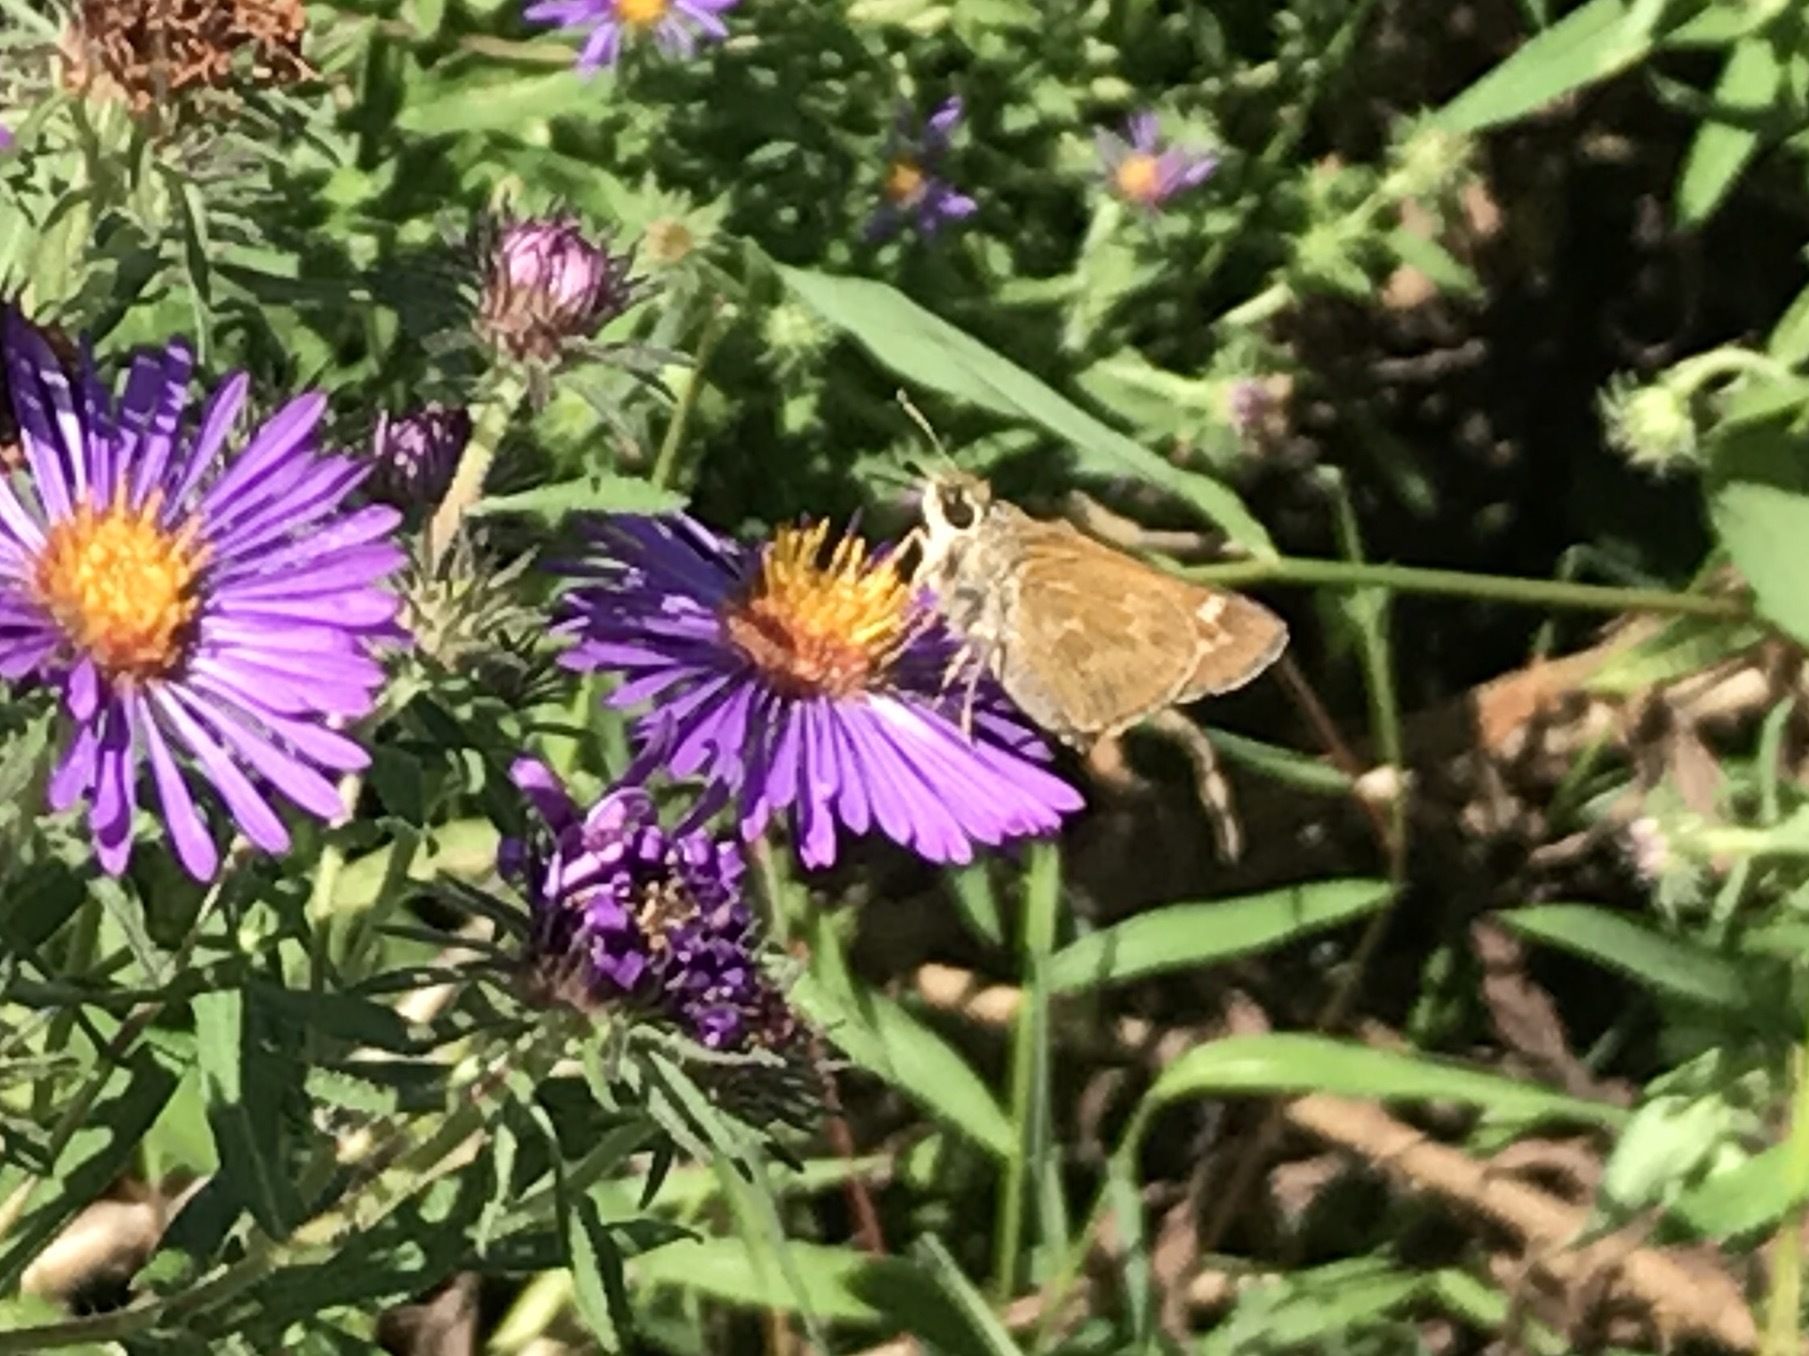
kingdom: Animalia
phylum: Arthropoda
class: Insecta
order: Lepidoptera
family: Hesperiidae
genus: Atalopedes
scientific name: Atalopedes
